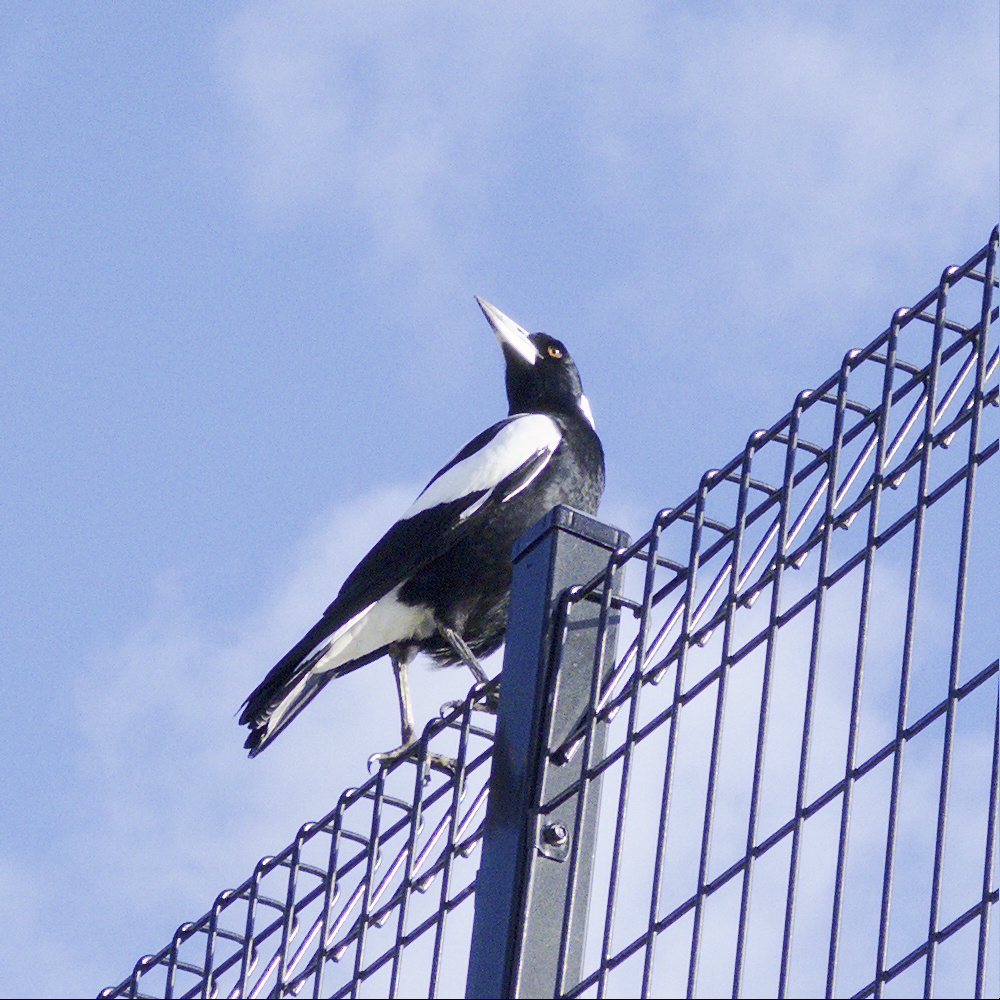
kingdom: Animalia
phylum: Chordata
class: Aves
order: Passeriformes
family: Cracticidae
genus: Gymnorhina
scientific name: Gymnorhina tibicen
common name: Australian magpie
